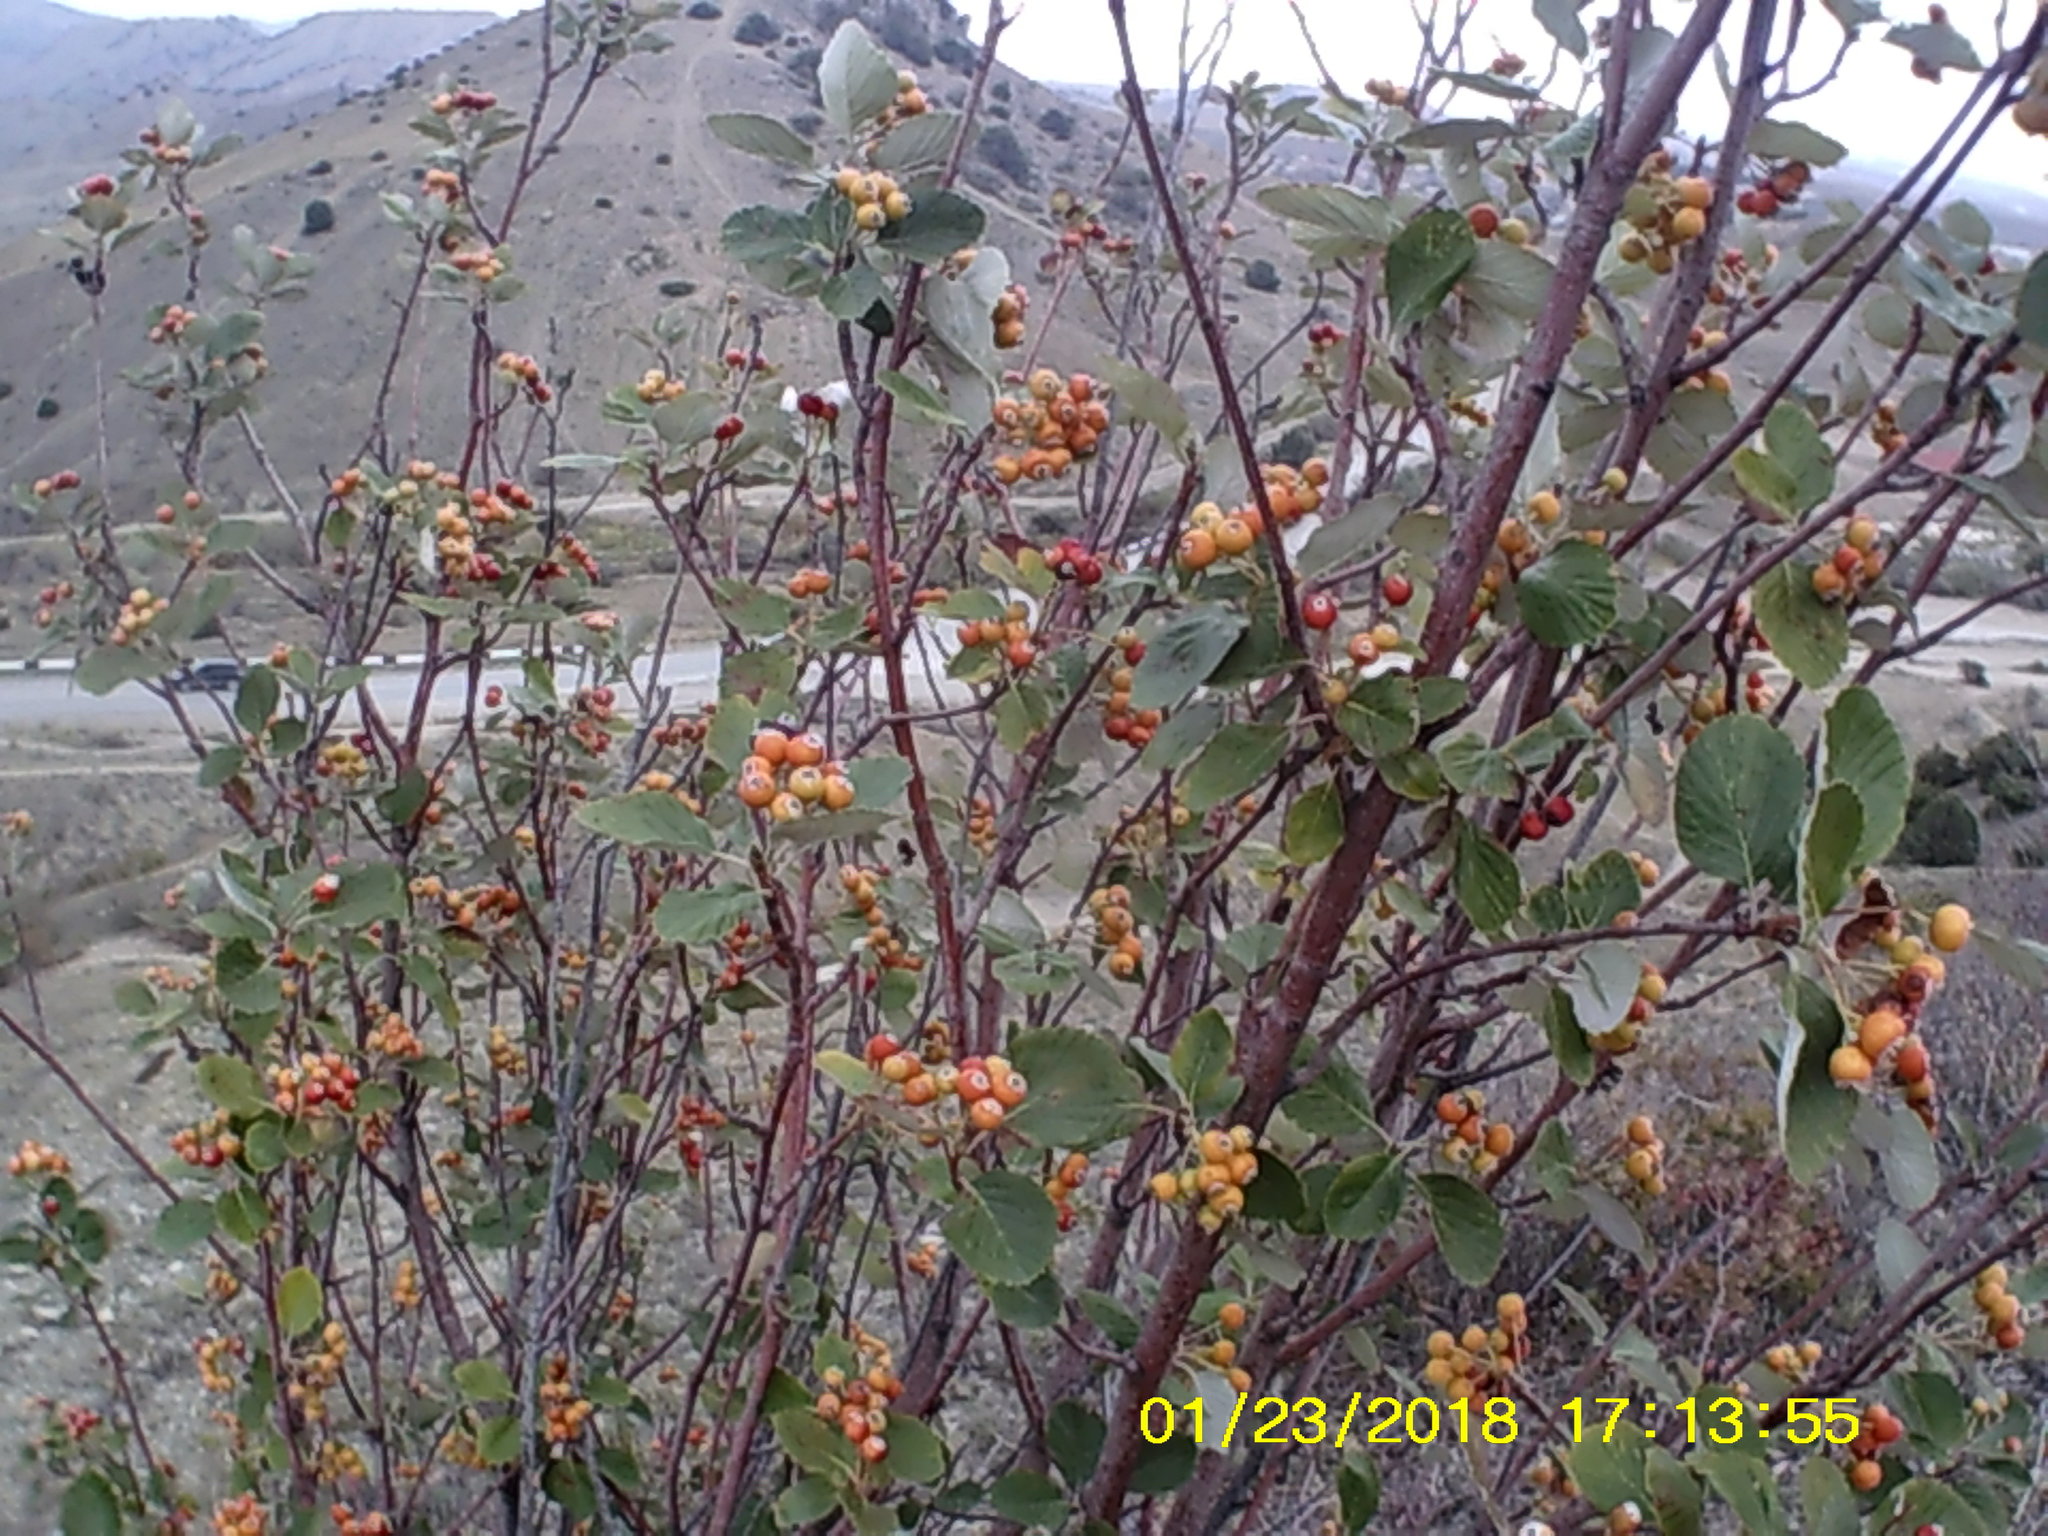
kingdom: Plantae
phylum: Tracheophyta
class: Magnoliopsida
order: Rosales
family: Rosaceae
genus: Aria
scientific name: Aria graeca
